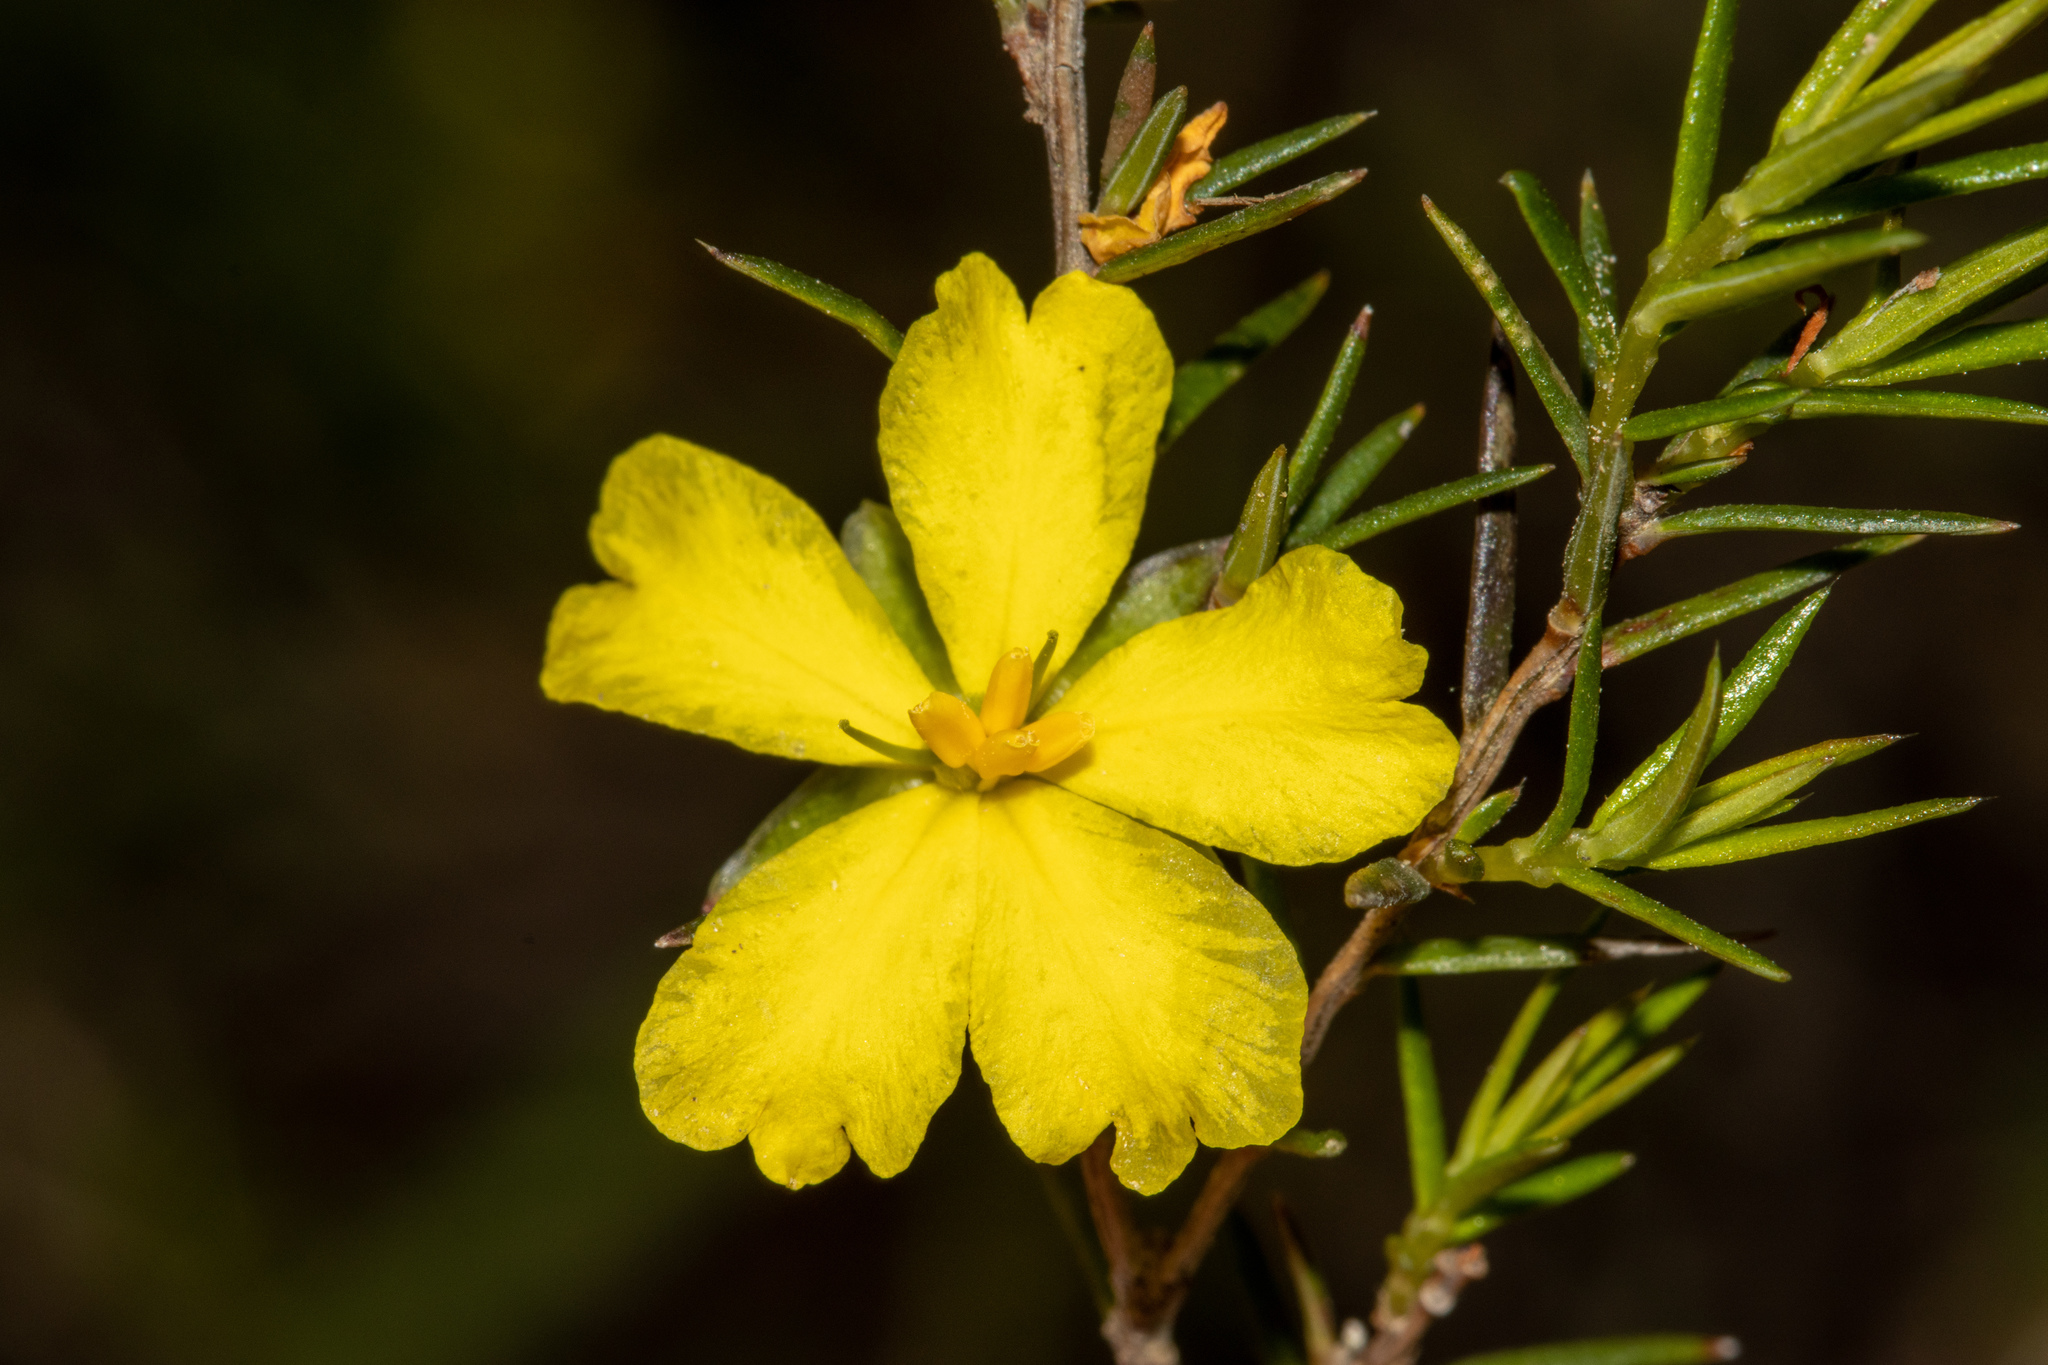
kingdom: Plantae
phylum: Tracheophyta
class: Magnoliopsida
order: Dilleniales
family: Dilleniaceae
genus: Hibbertia
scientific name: Hibbertia exutiacies
